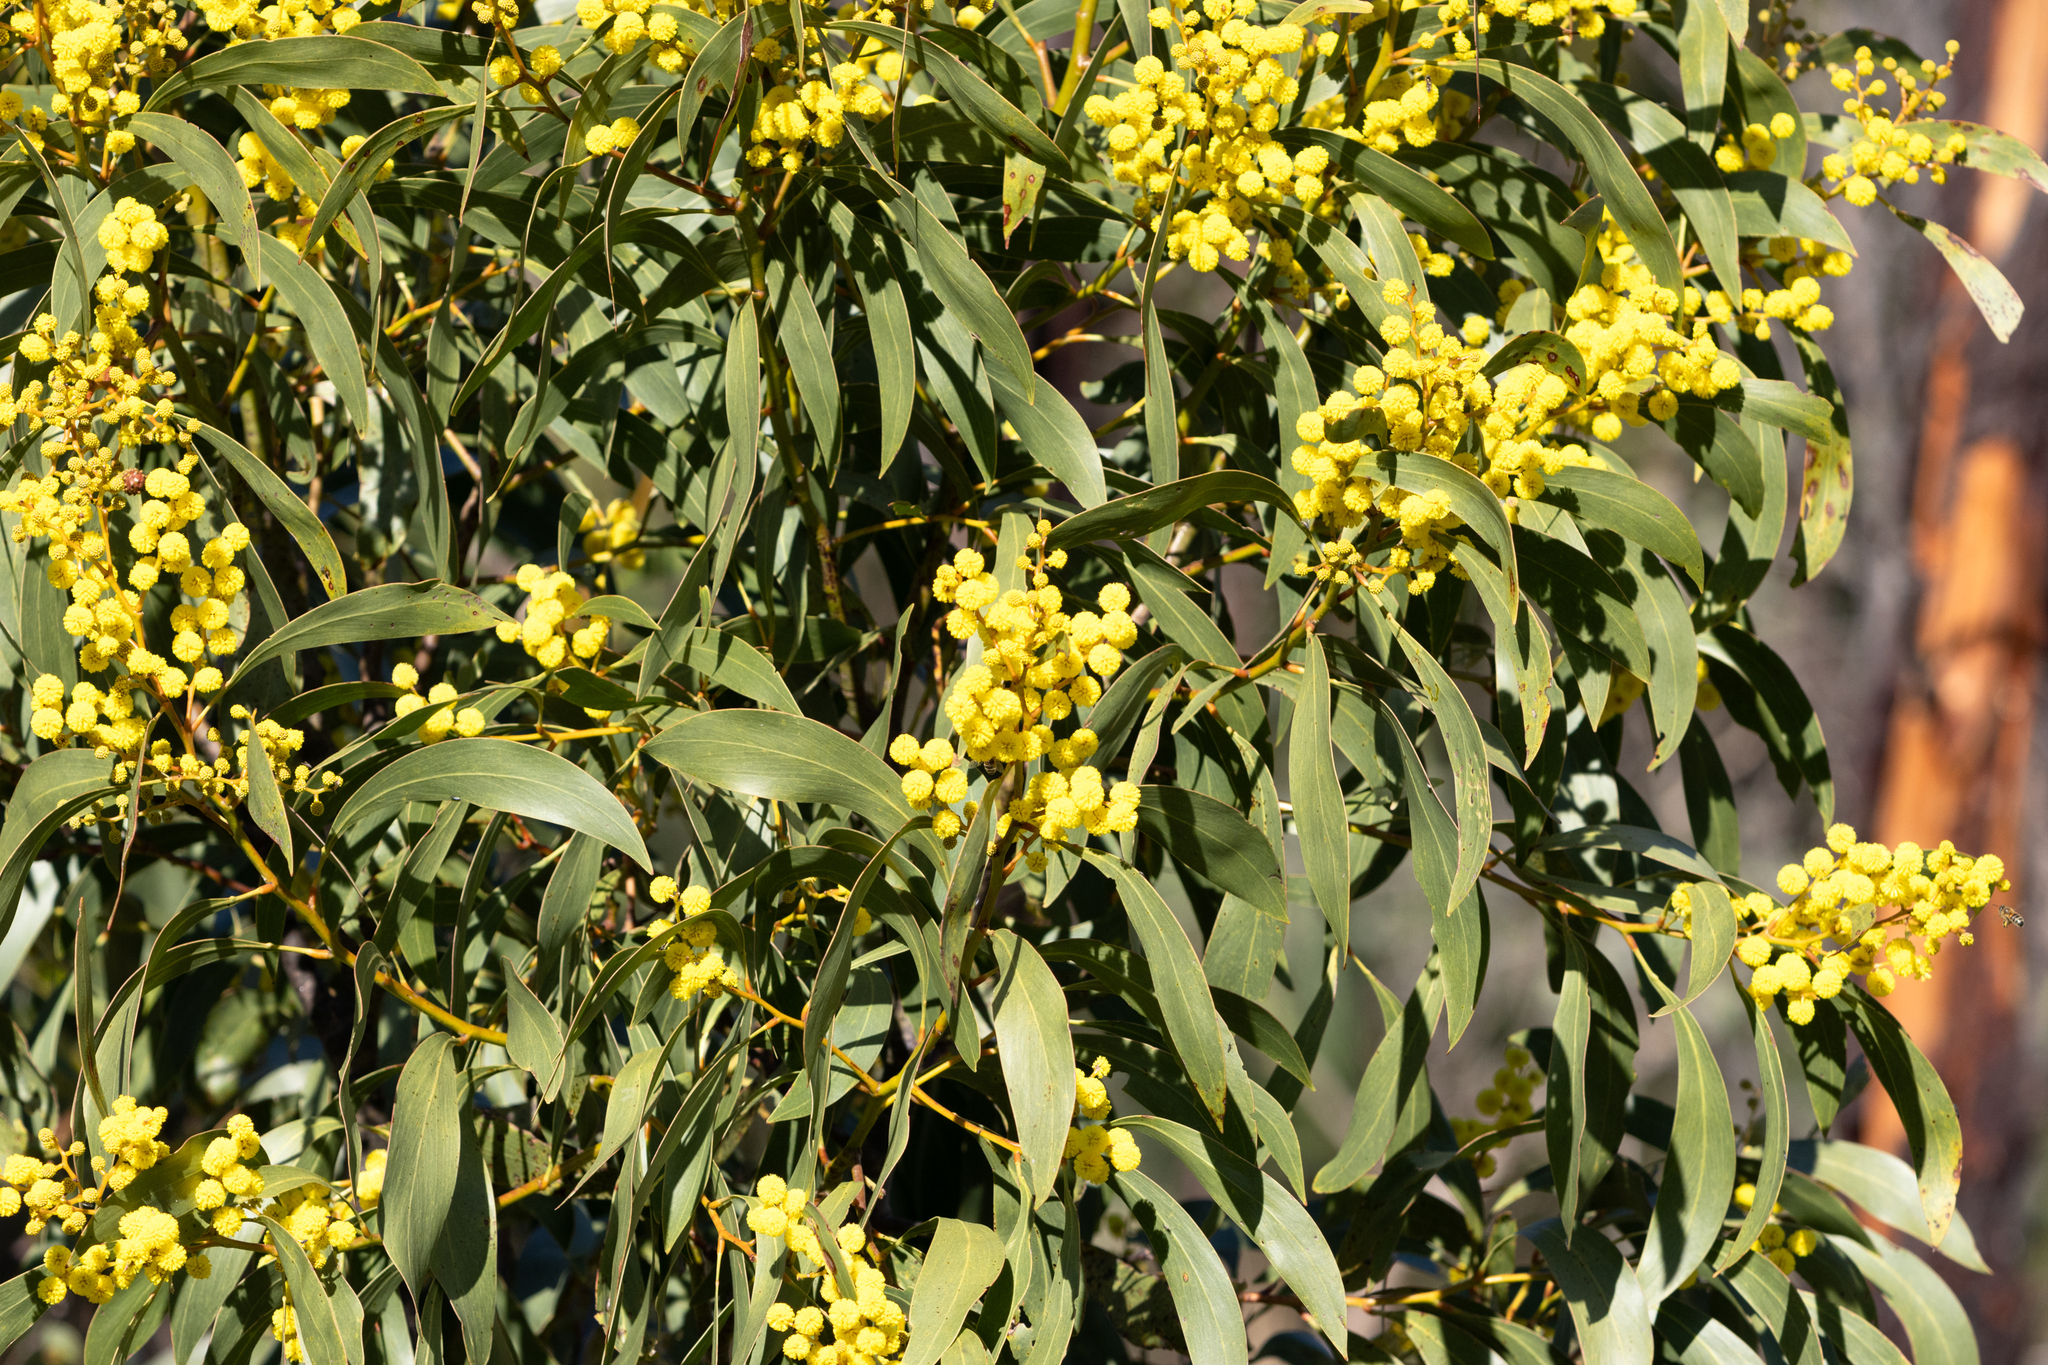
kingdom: Plantae
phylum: Tracheophyta
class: Magnoliopsida
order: Fabales
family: Fabaceae
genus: Acacia
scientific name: Acacia pycnantha
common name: Golden wattle
